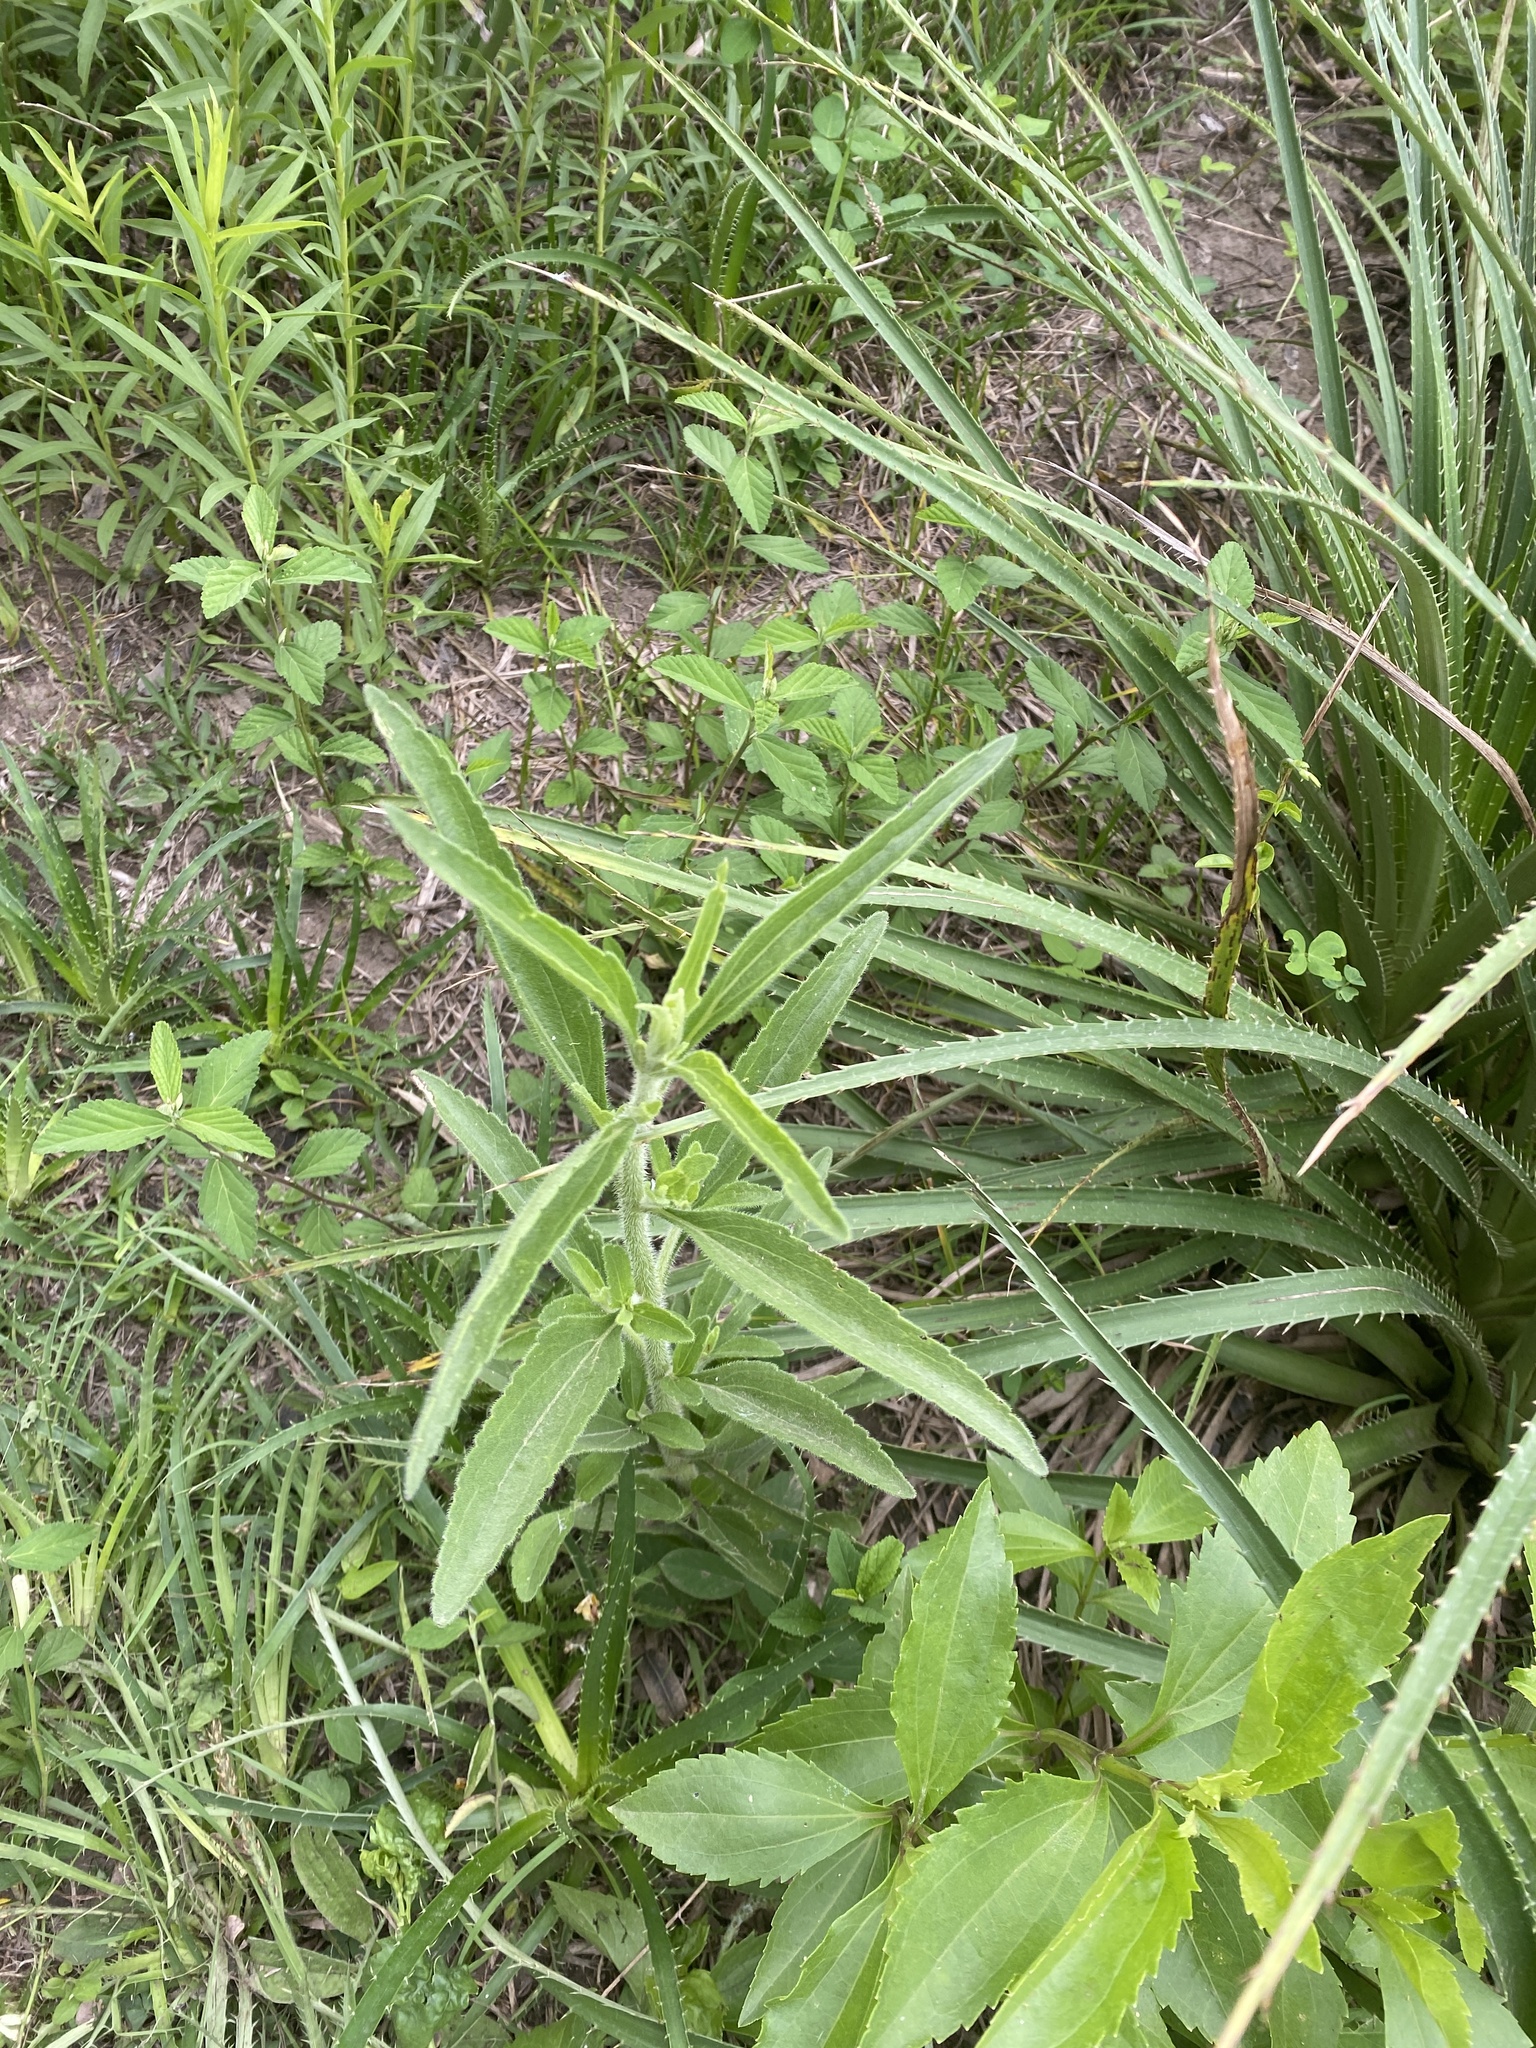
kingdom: Plantae
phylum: Tracheophyta
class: Magnoliopsida
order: Asterales
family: Asteraceae
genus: Campuloclinium
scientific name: Campuloclinium macrocephalum
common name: Pompomweed
